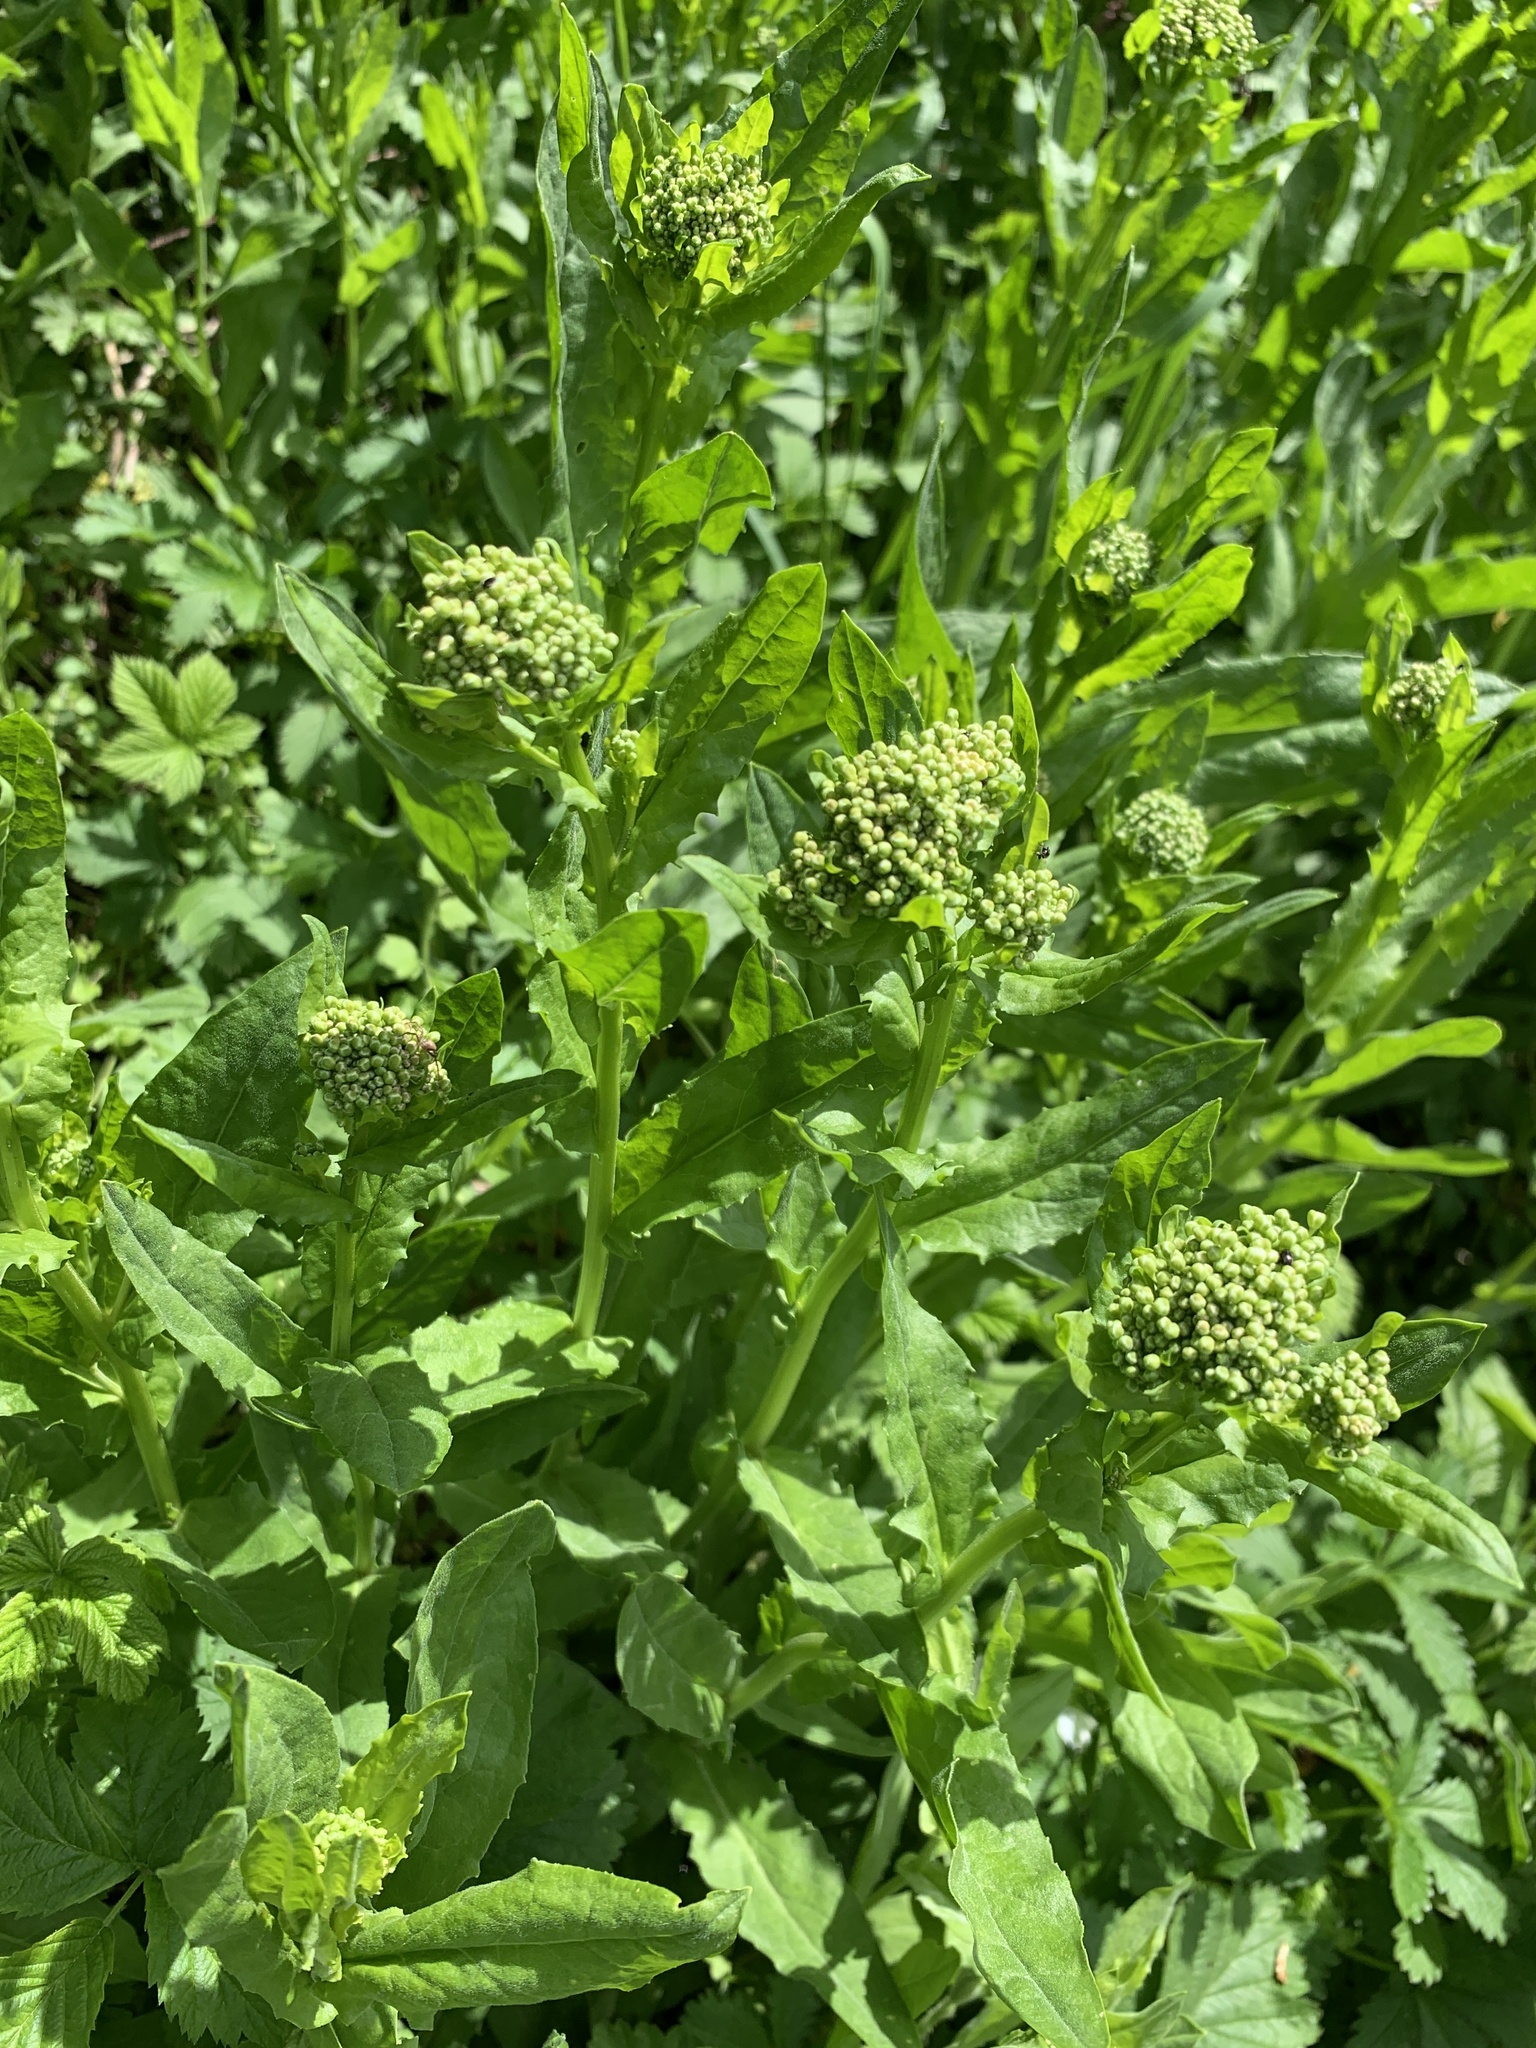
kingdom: Plantae
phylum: Tracheophyta
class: Magnoliopsida
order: Brassicales
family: Brassicaceae
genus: Lepidium
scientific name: Lepidium draba
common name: Hoary cress
